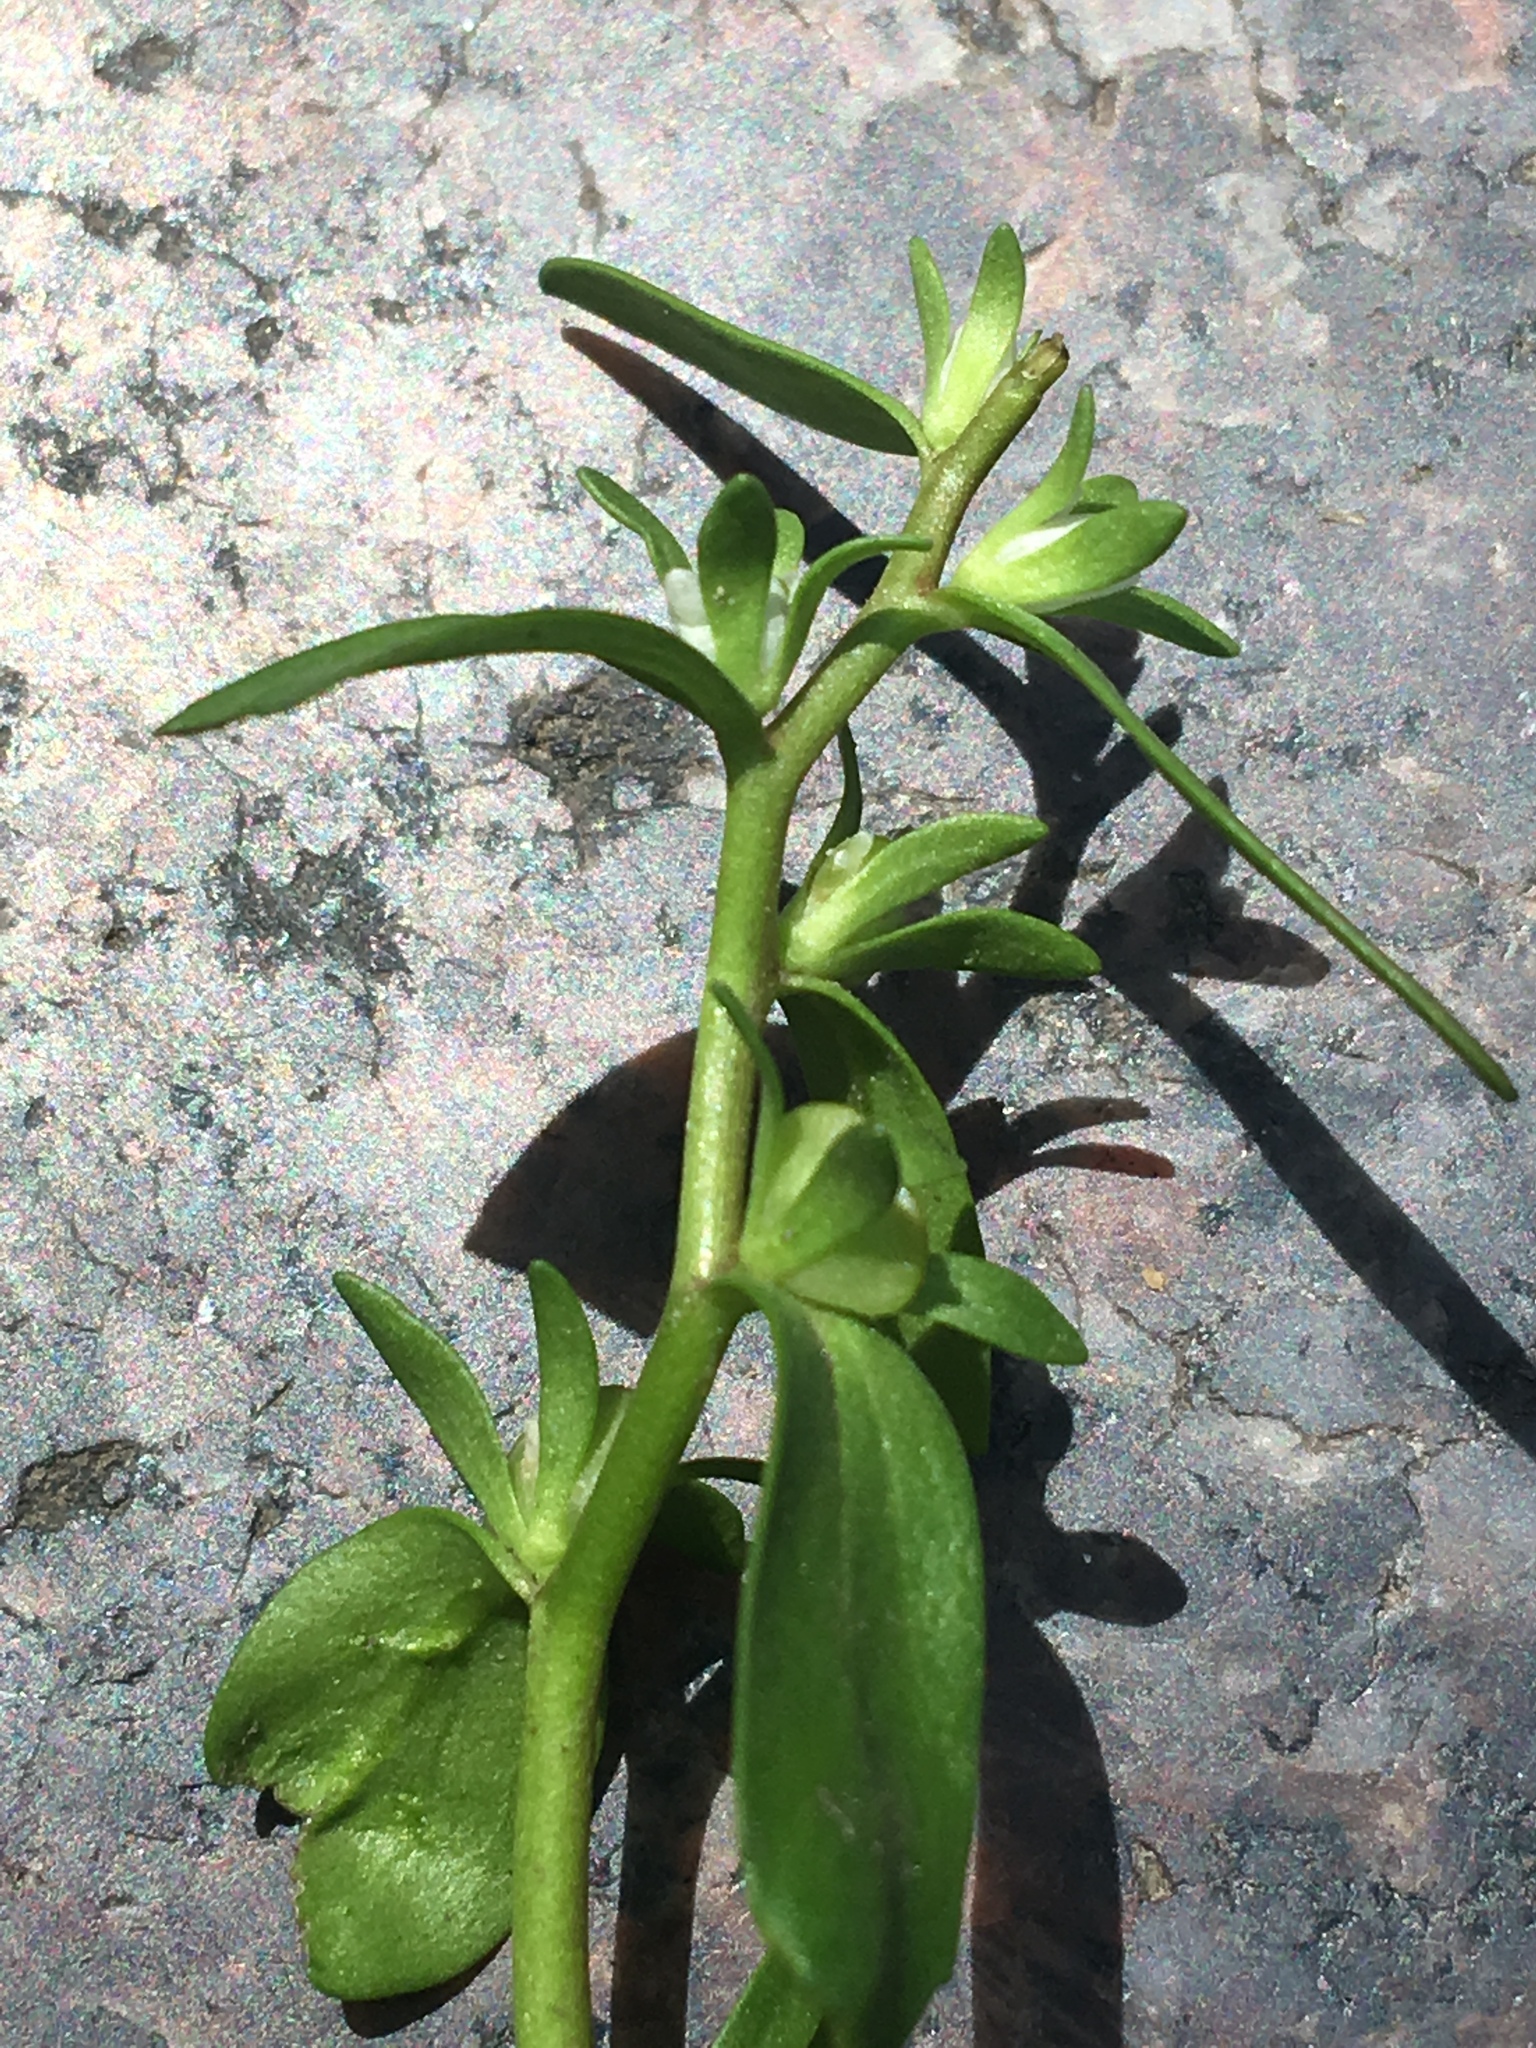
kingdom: Plantae
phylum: Tracheophyta
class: Magnoliopsida
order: Lamiales
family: Plantaginaceae
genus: Veronica
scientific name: Veronica peregrina
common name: Neckweed
